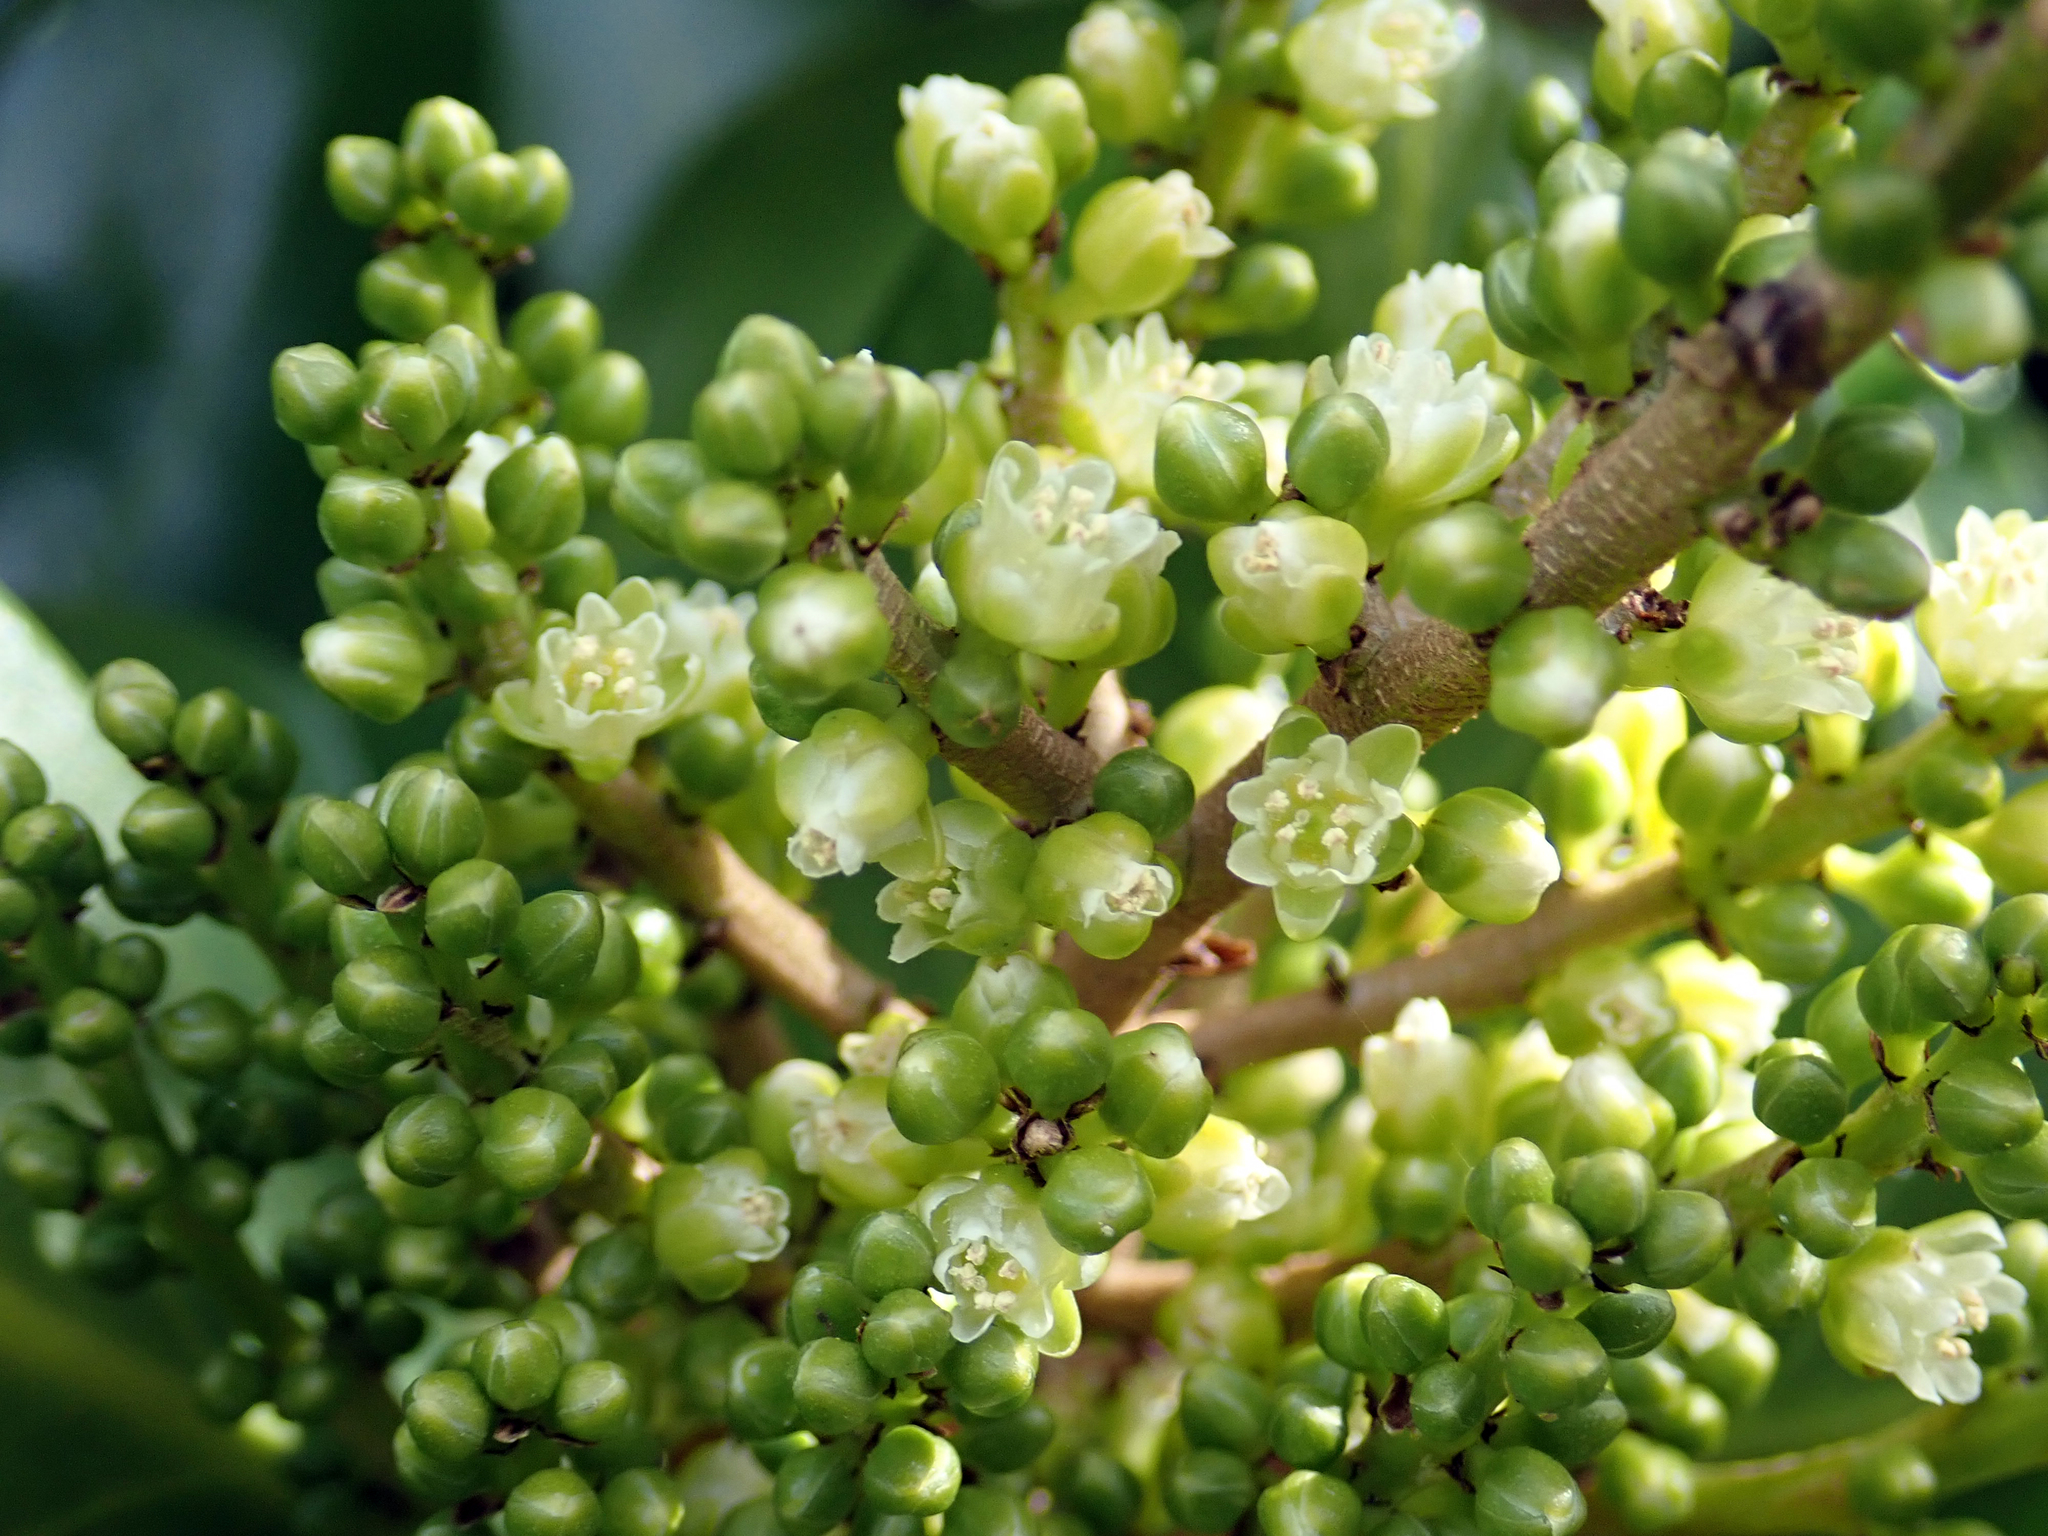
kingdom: Plantae
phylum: Tracheophyta
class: Magnoliopsida
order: Cucurbitales
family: Corynocarpaceae
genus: Corynocarpus
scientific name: Corynocarpus laevigatus
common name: New zealand laurel
